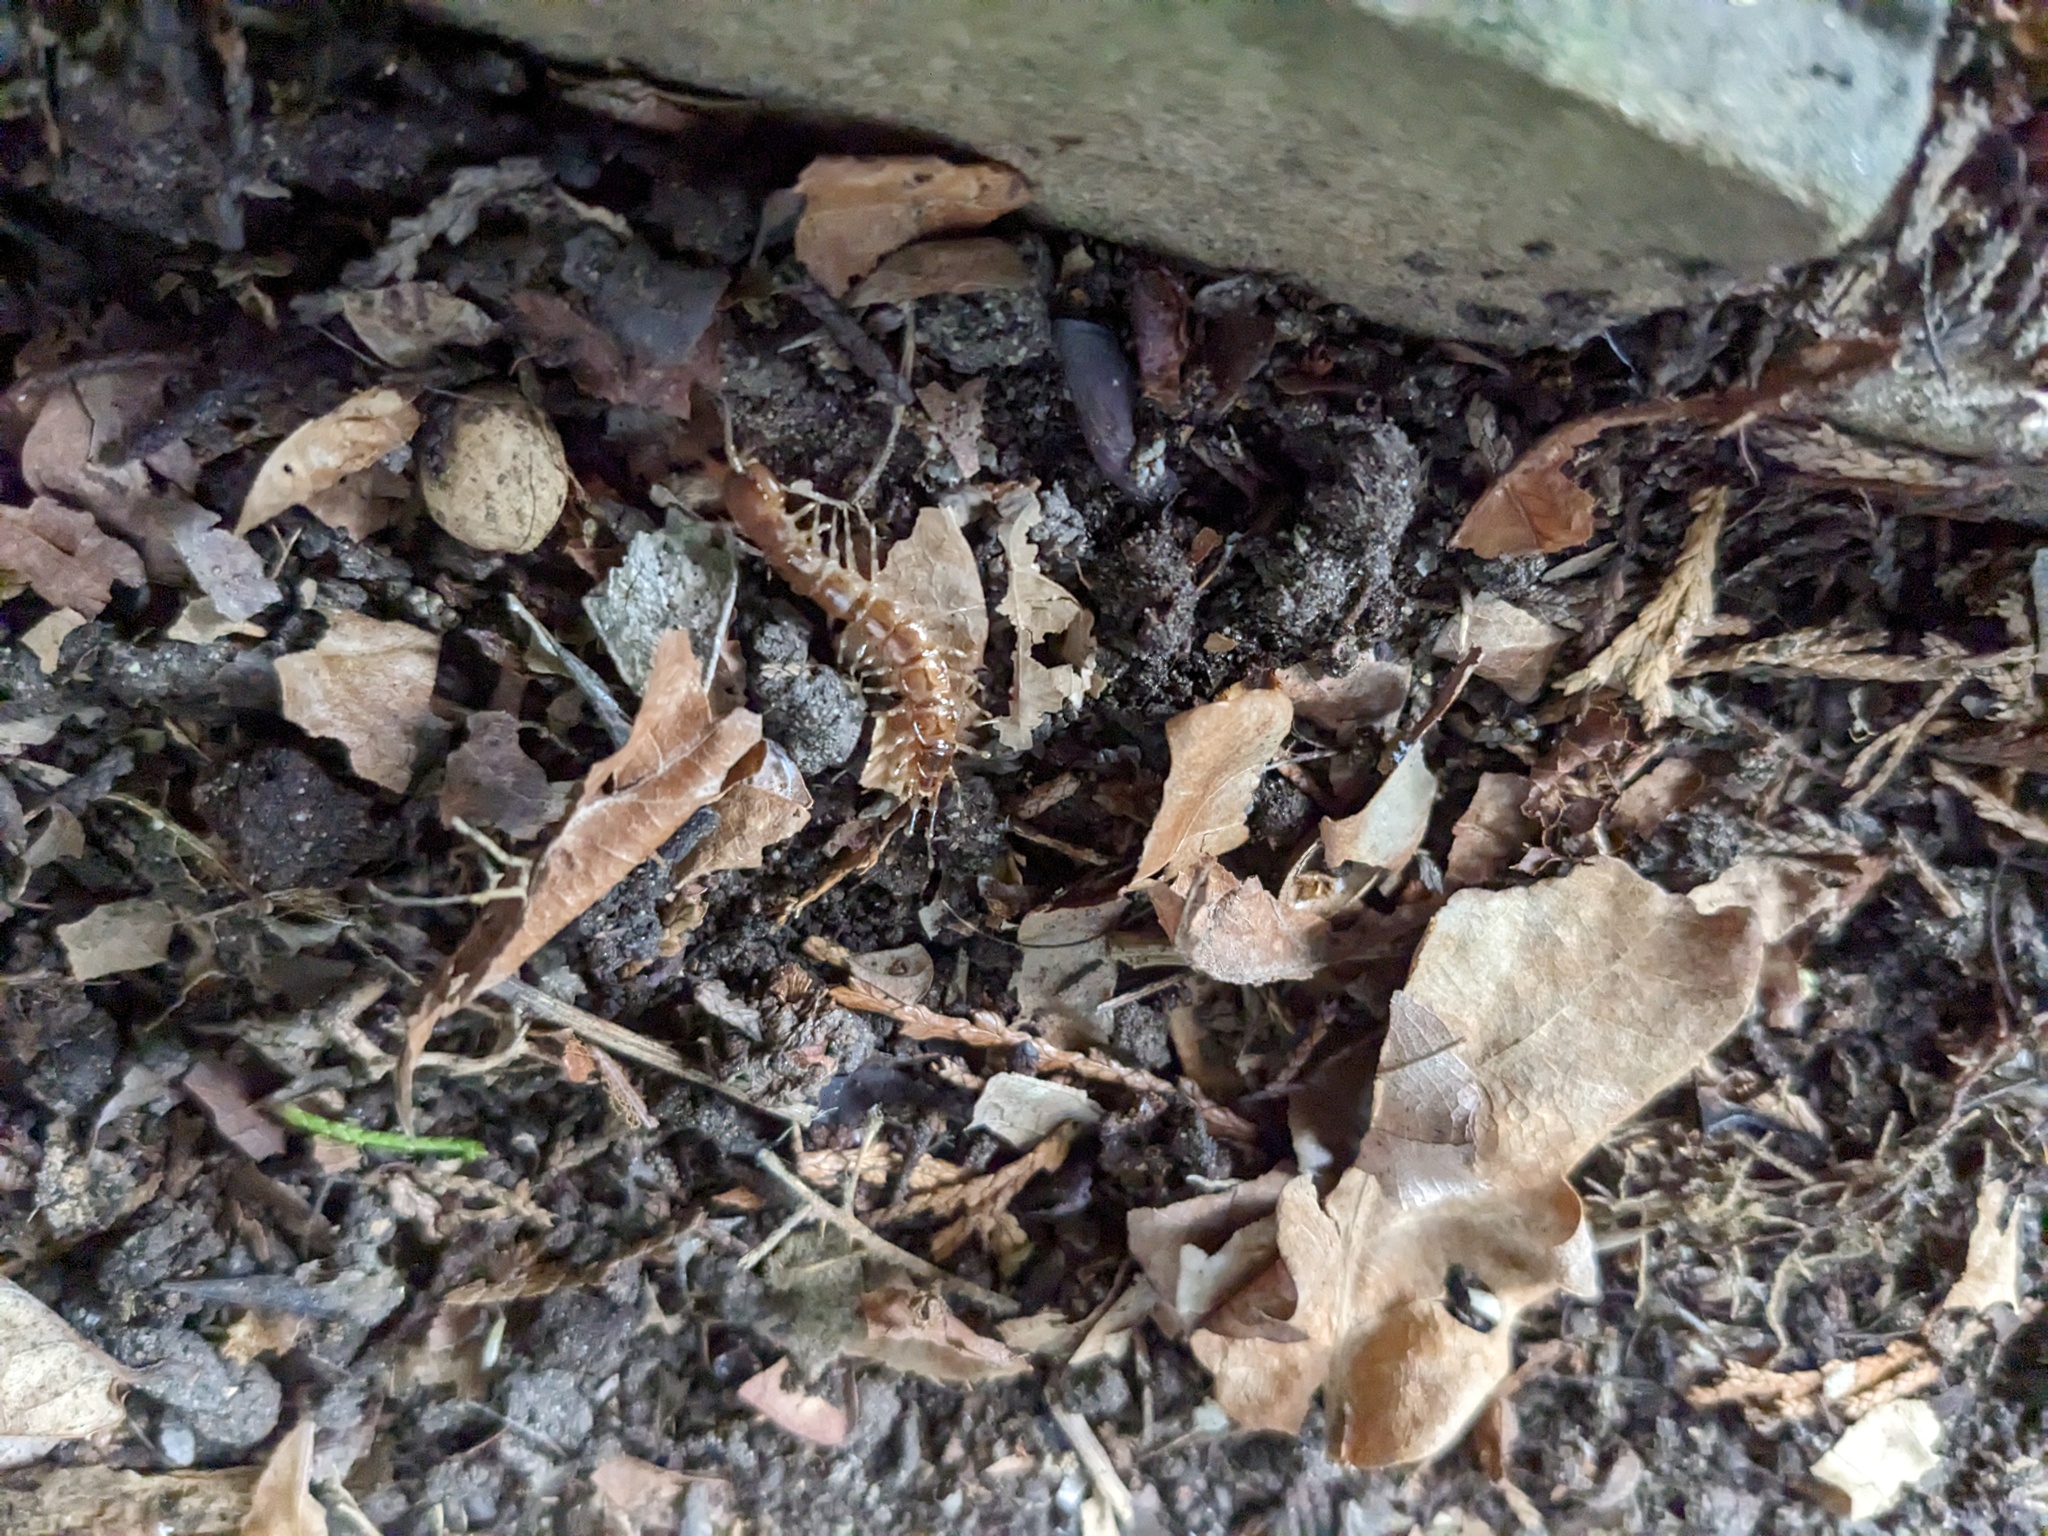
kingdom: Animalia
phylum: Arthropoda
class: Chilopoda
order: Lithobiomorpha
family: Lithobiidae
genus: Lithobius
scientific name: Lithobius variegatus
